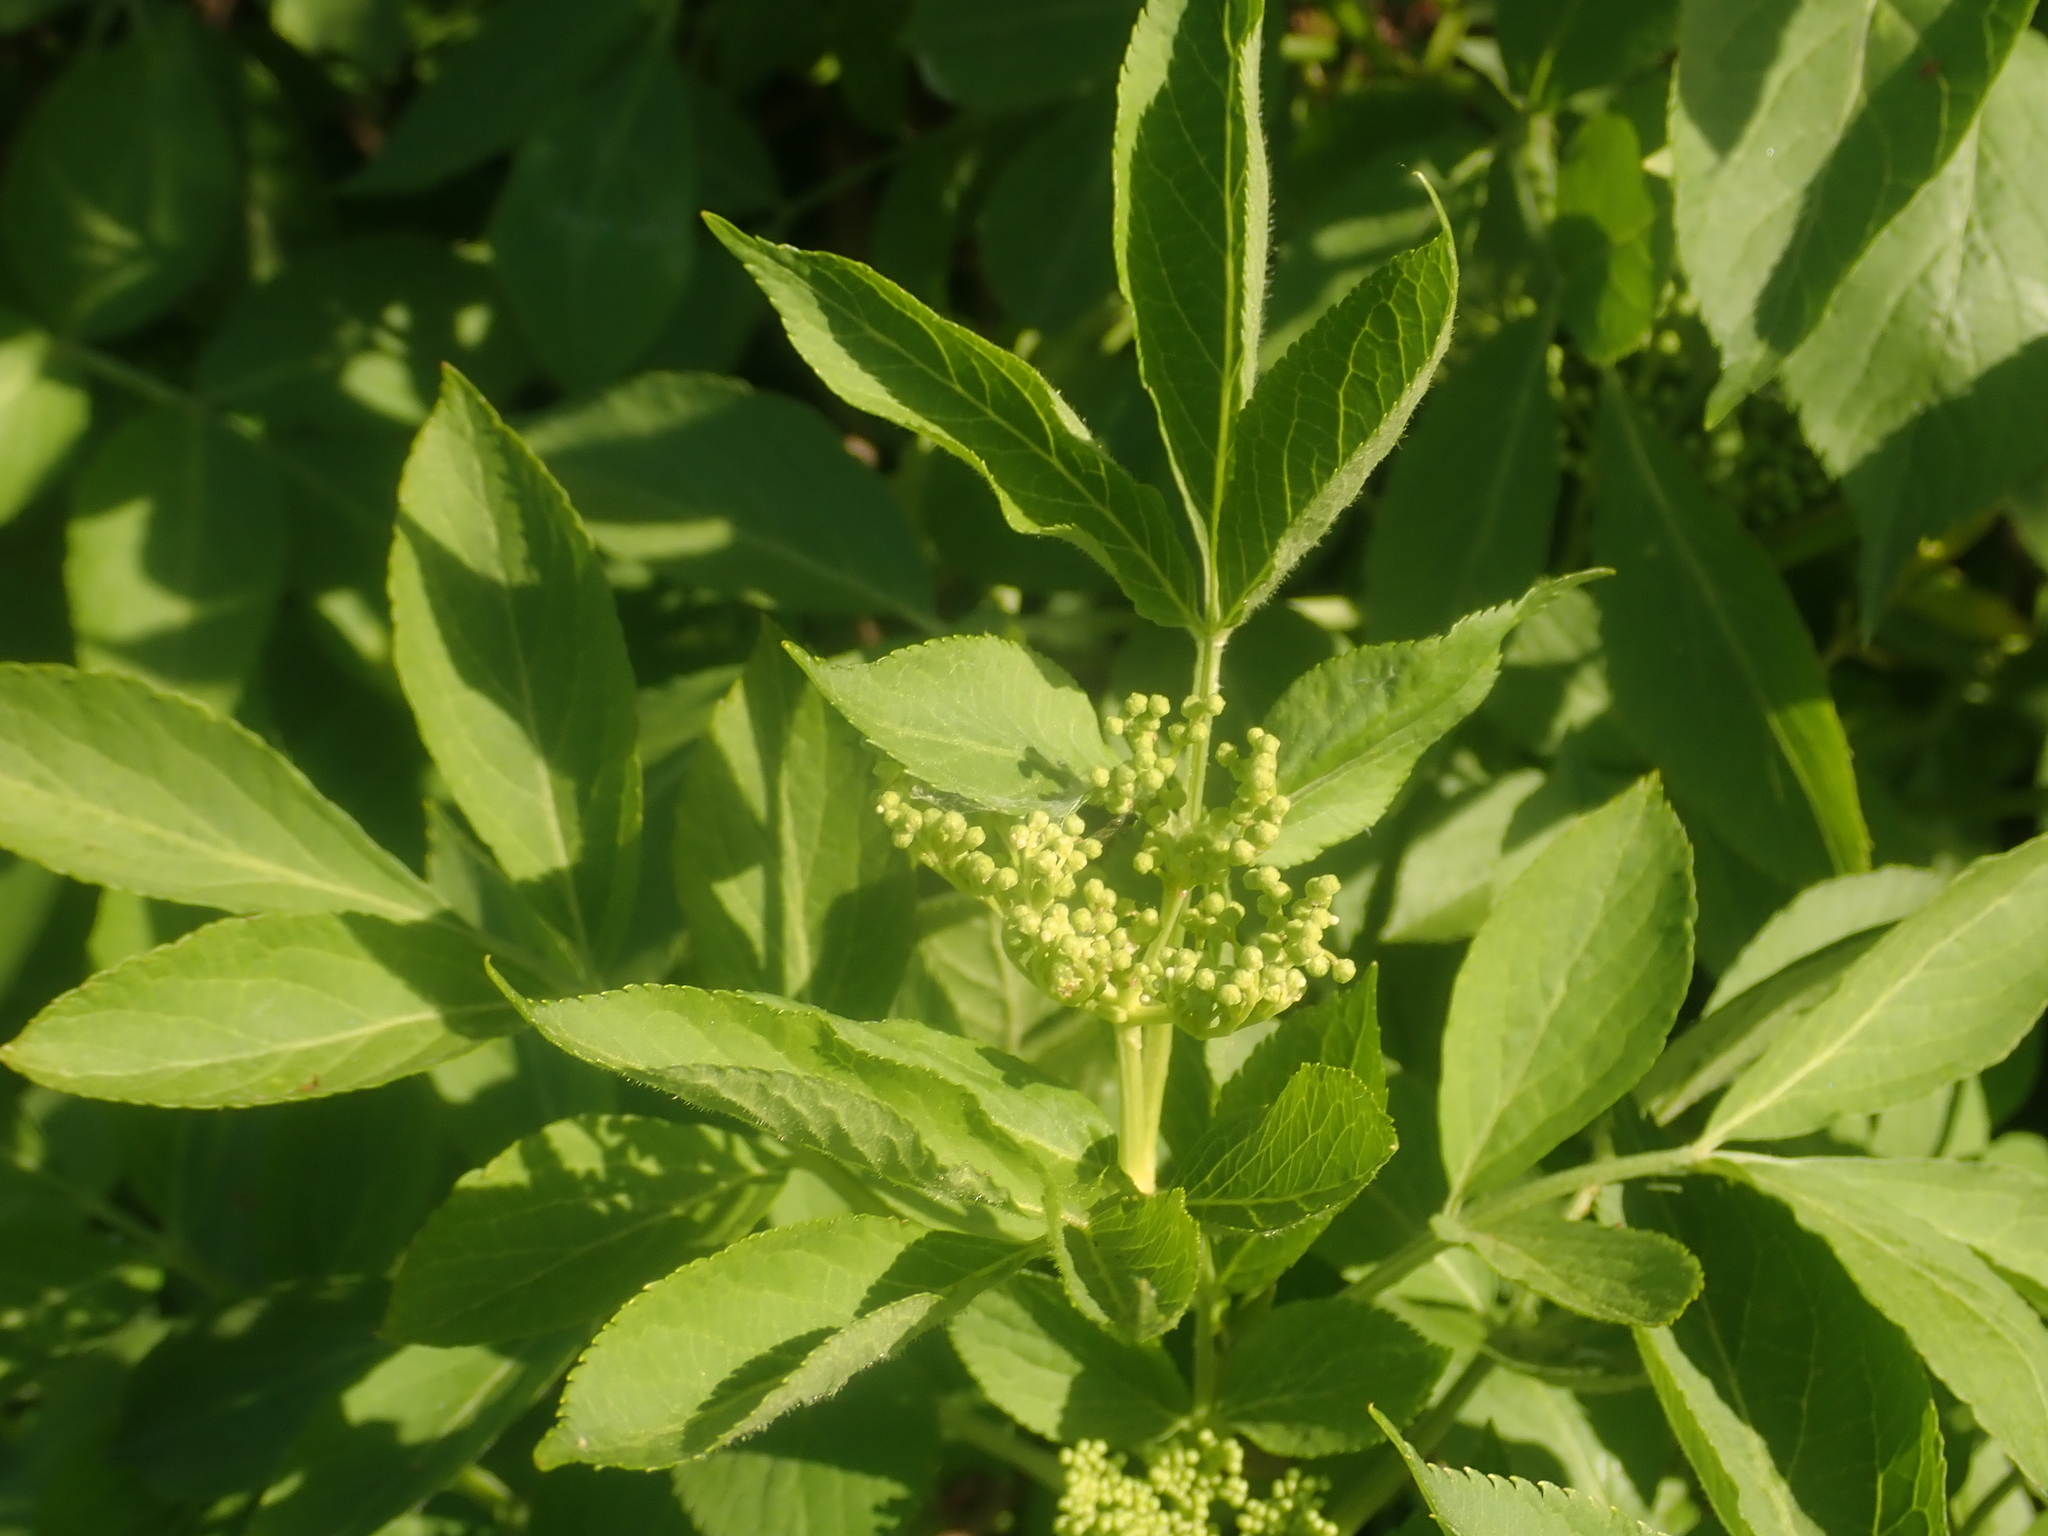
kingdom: Plantae
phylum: Tracheophyta
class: Magnoliopsida
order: Dipsacales
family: Viburnaceae
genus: Sambucus
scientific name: Sambucus nigra
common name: Elder
